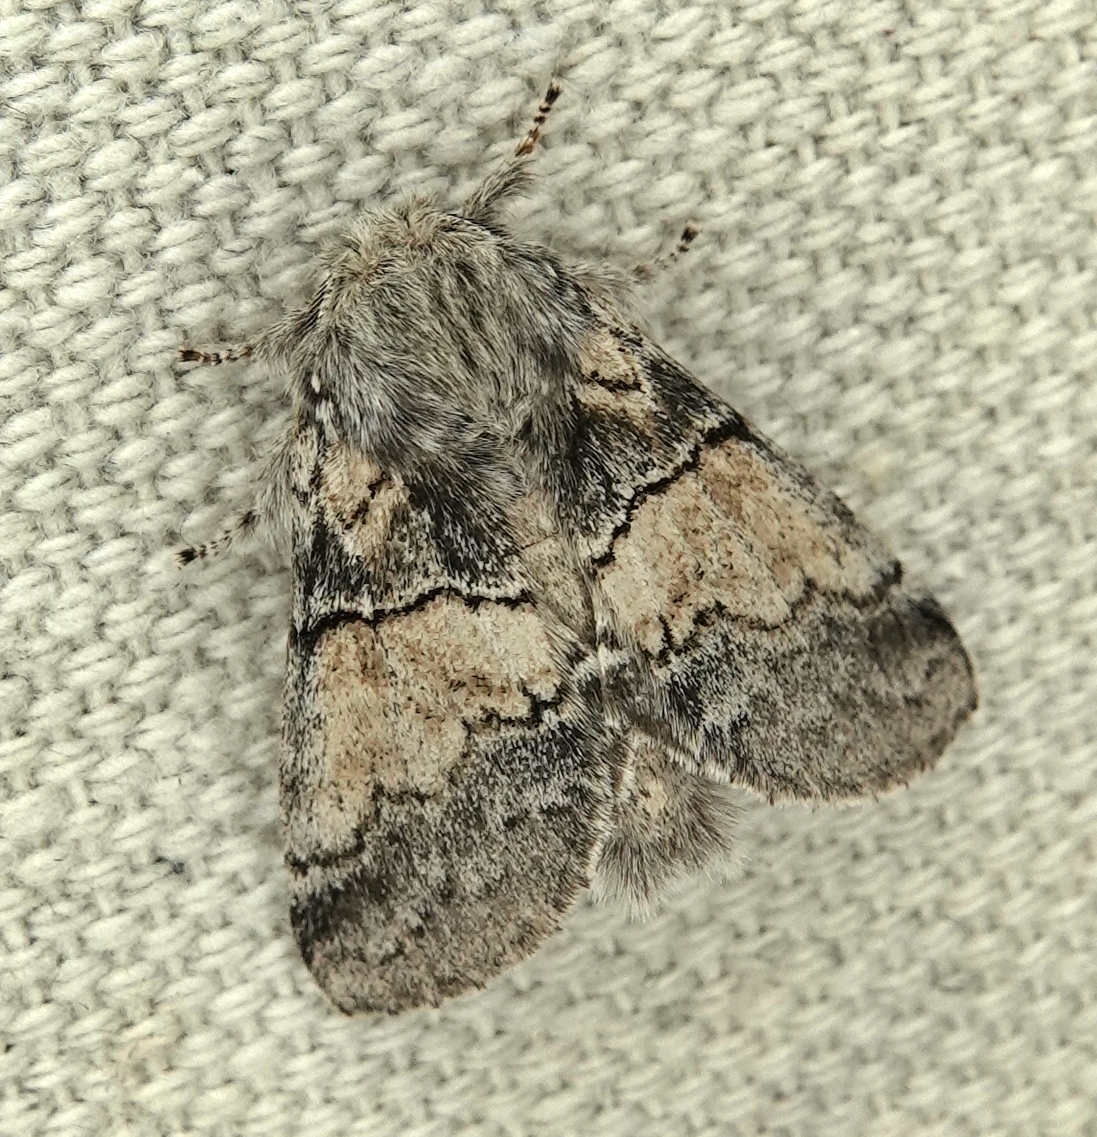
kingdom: Animalia
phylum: Arthropoda
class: Insecta
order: Lepidoptera
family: Notodontidae
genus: Gluphisia
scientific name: Gluphisia septentrionis
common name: Common gluphisia
